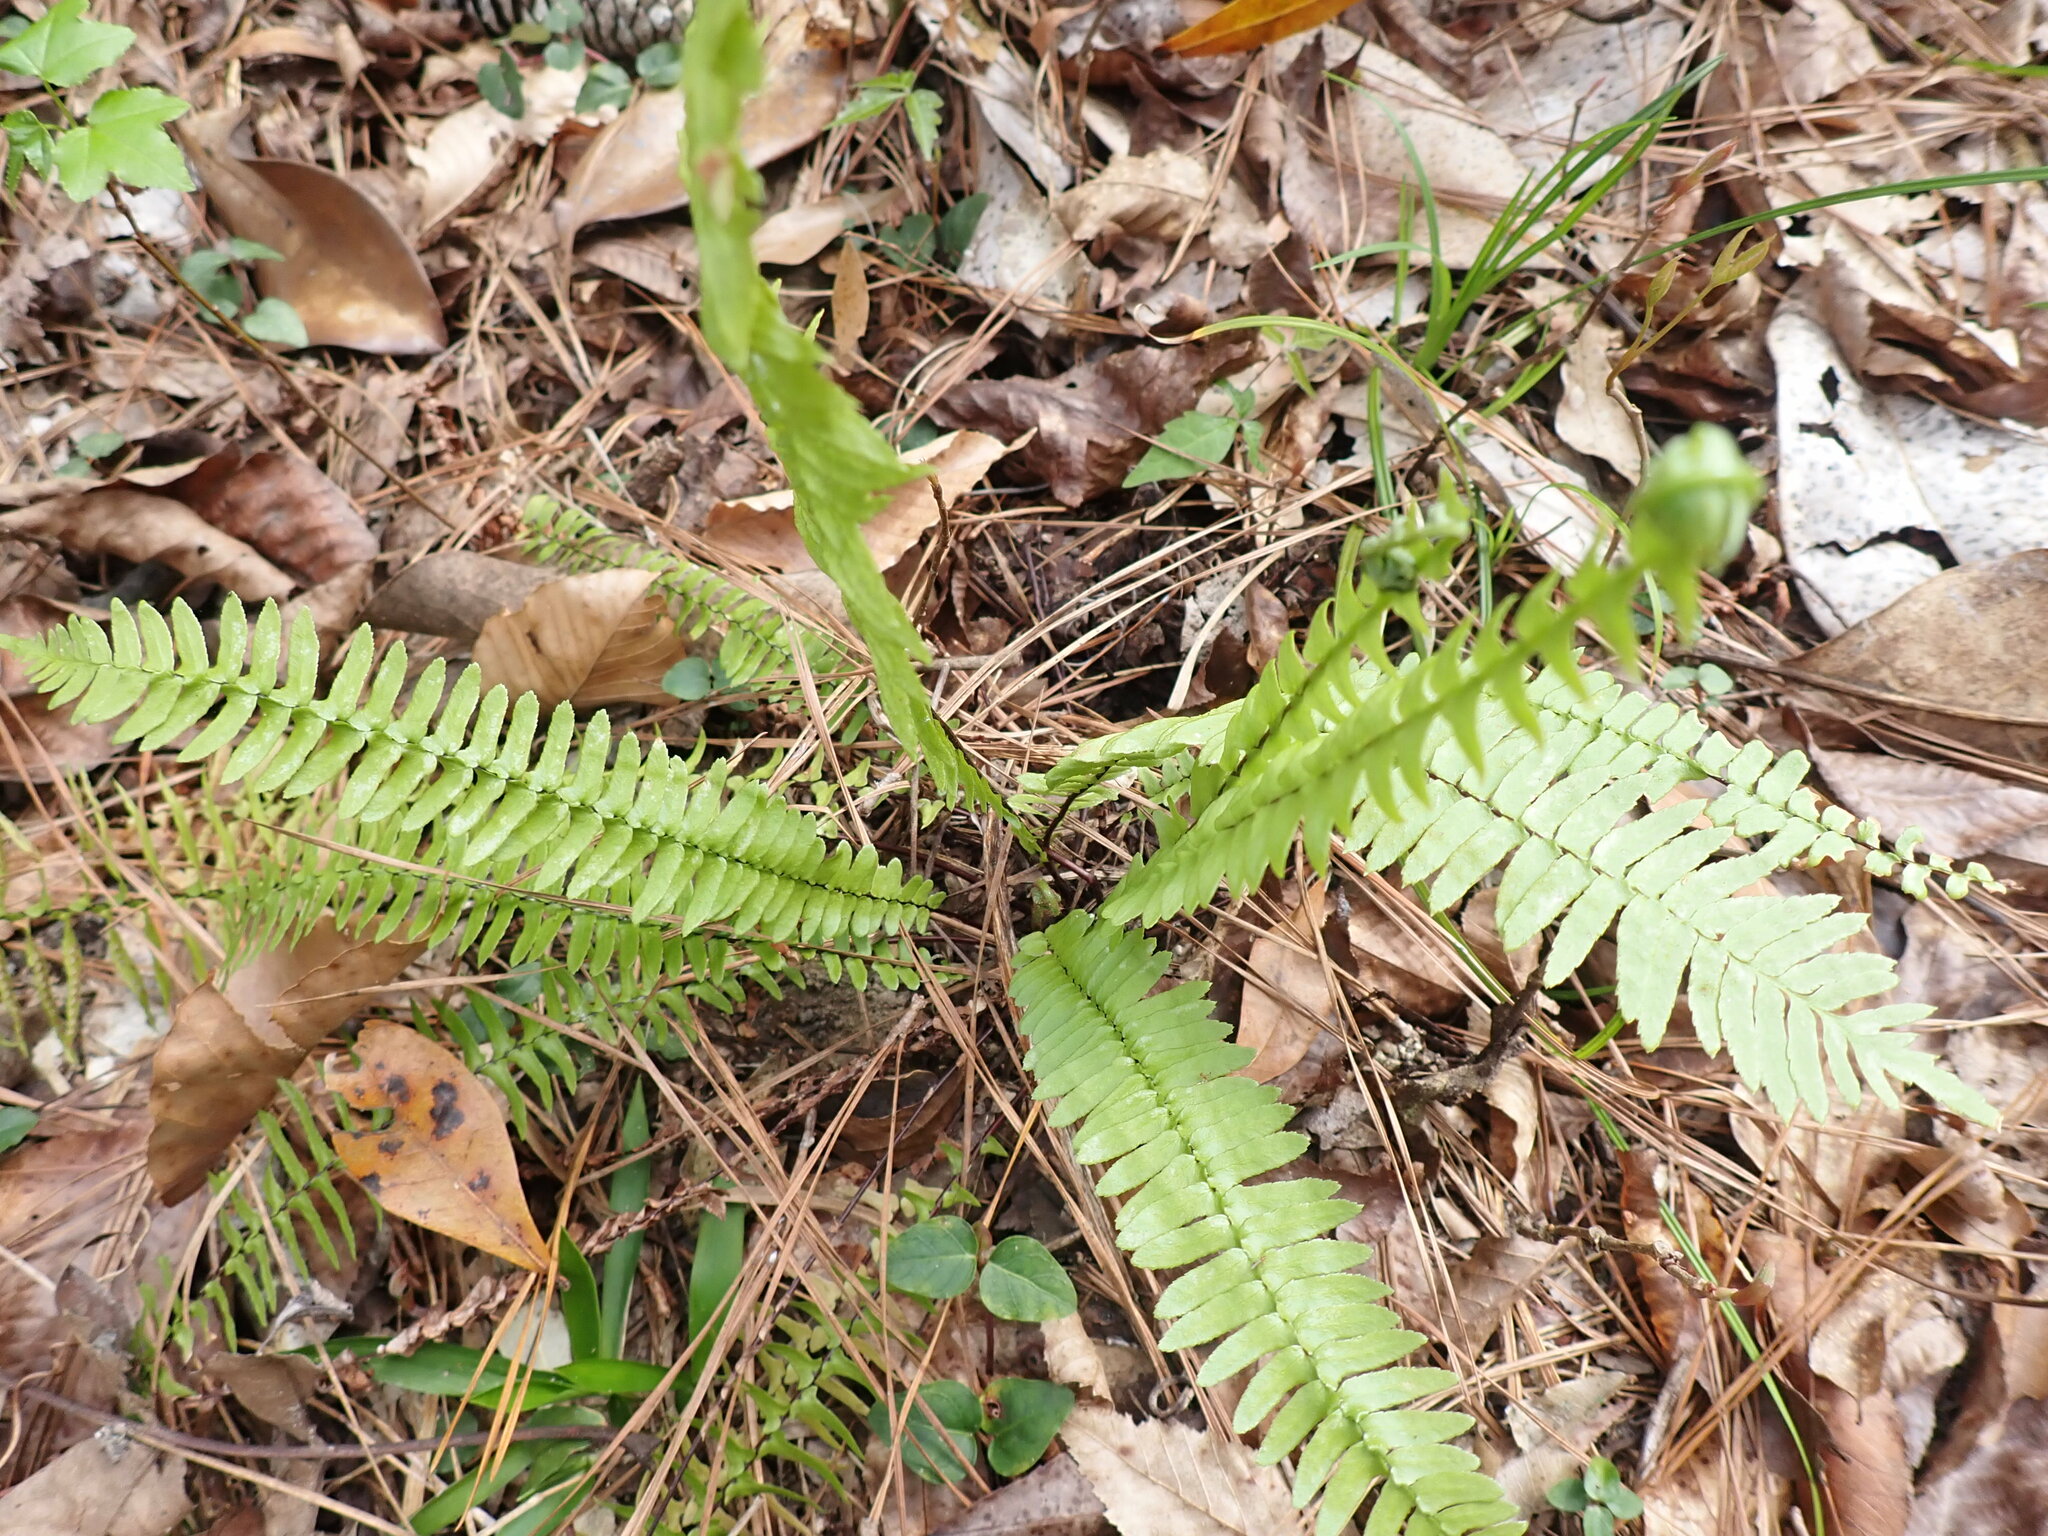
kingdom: Plantae
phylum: Tracheophyta
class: Polypodiopsida
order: Polypodiales
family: Aspleniaceae
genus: Asplenium
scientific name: Asplenium platyneuron
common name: Ebony spleenwort
